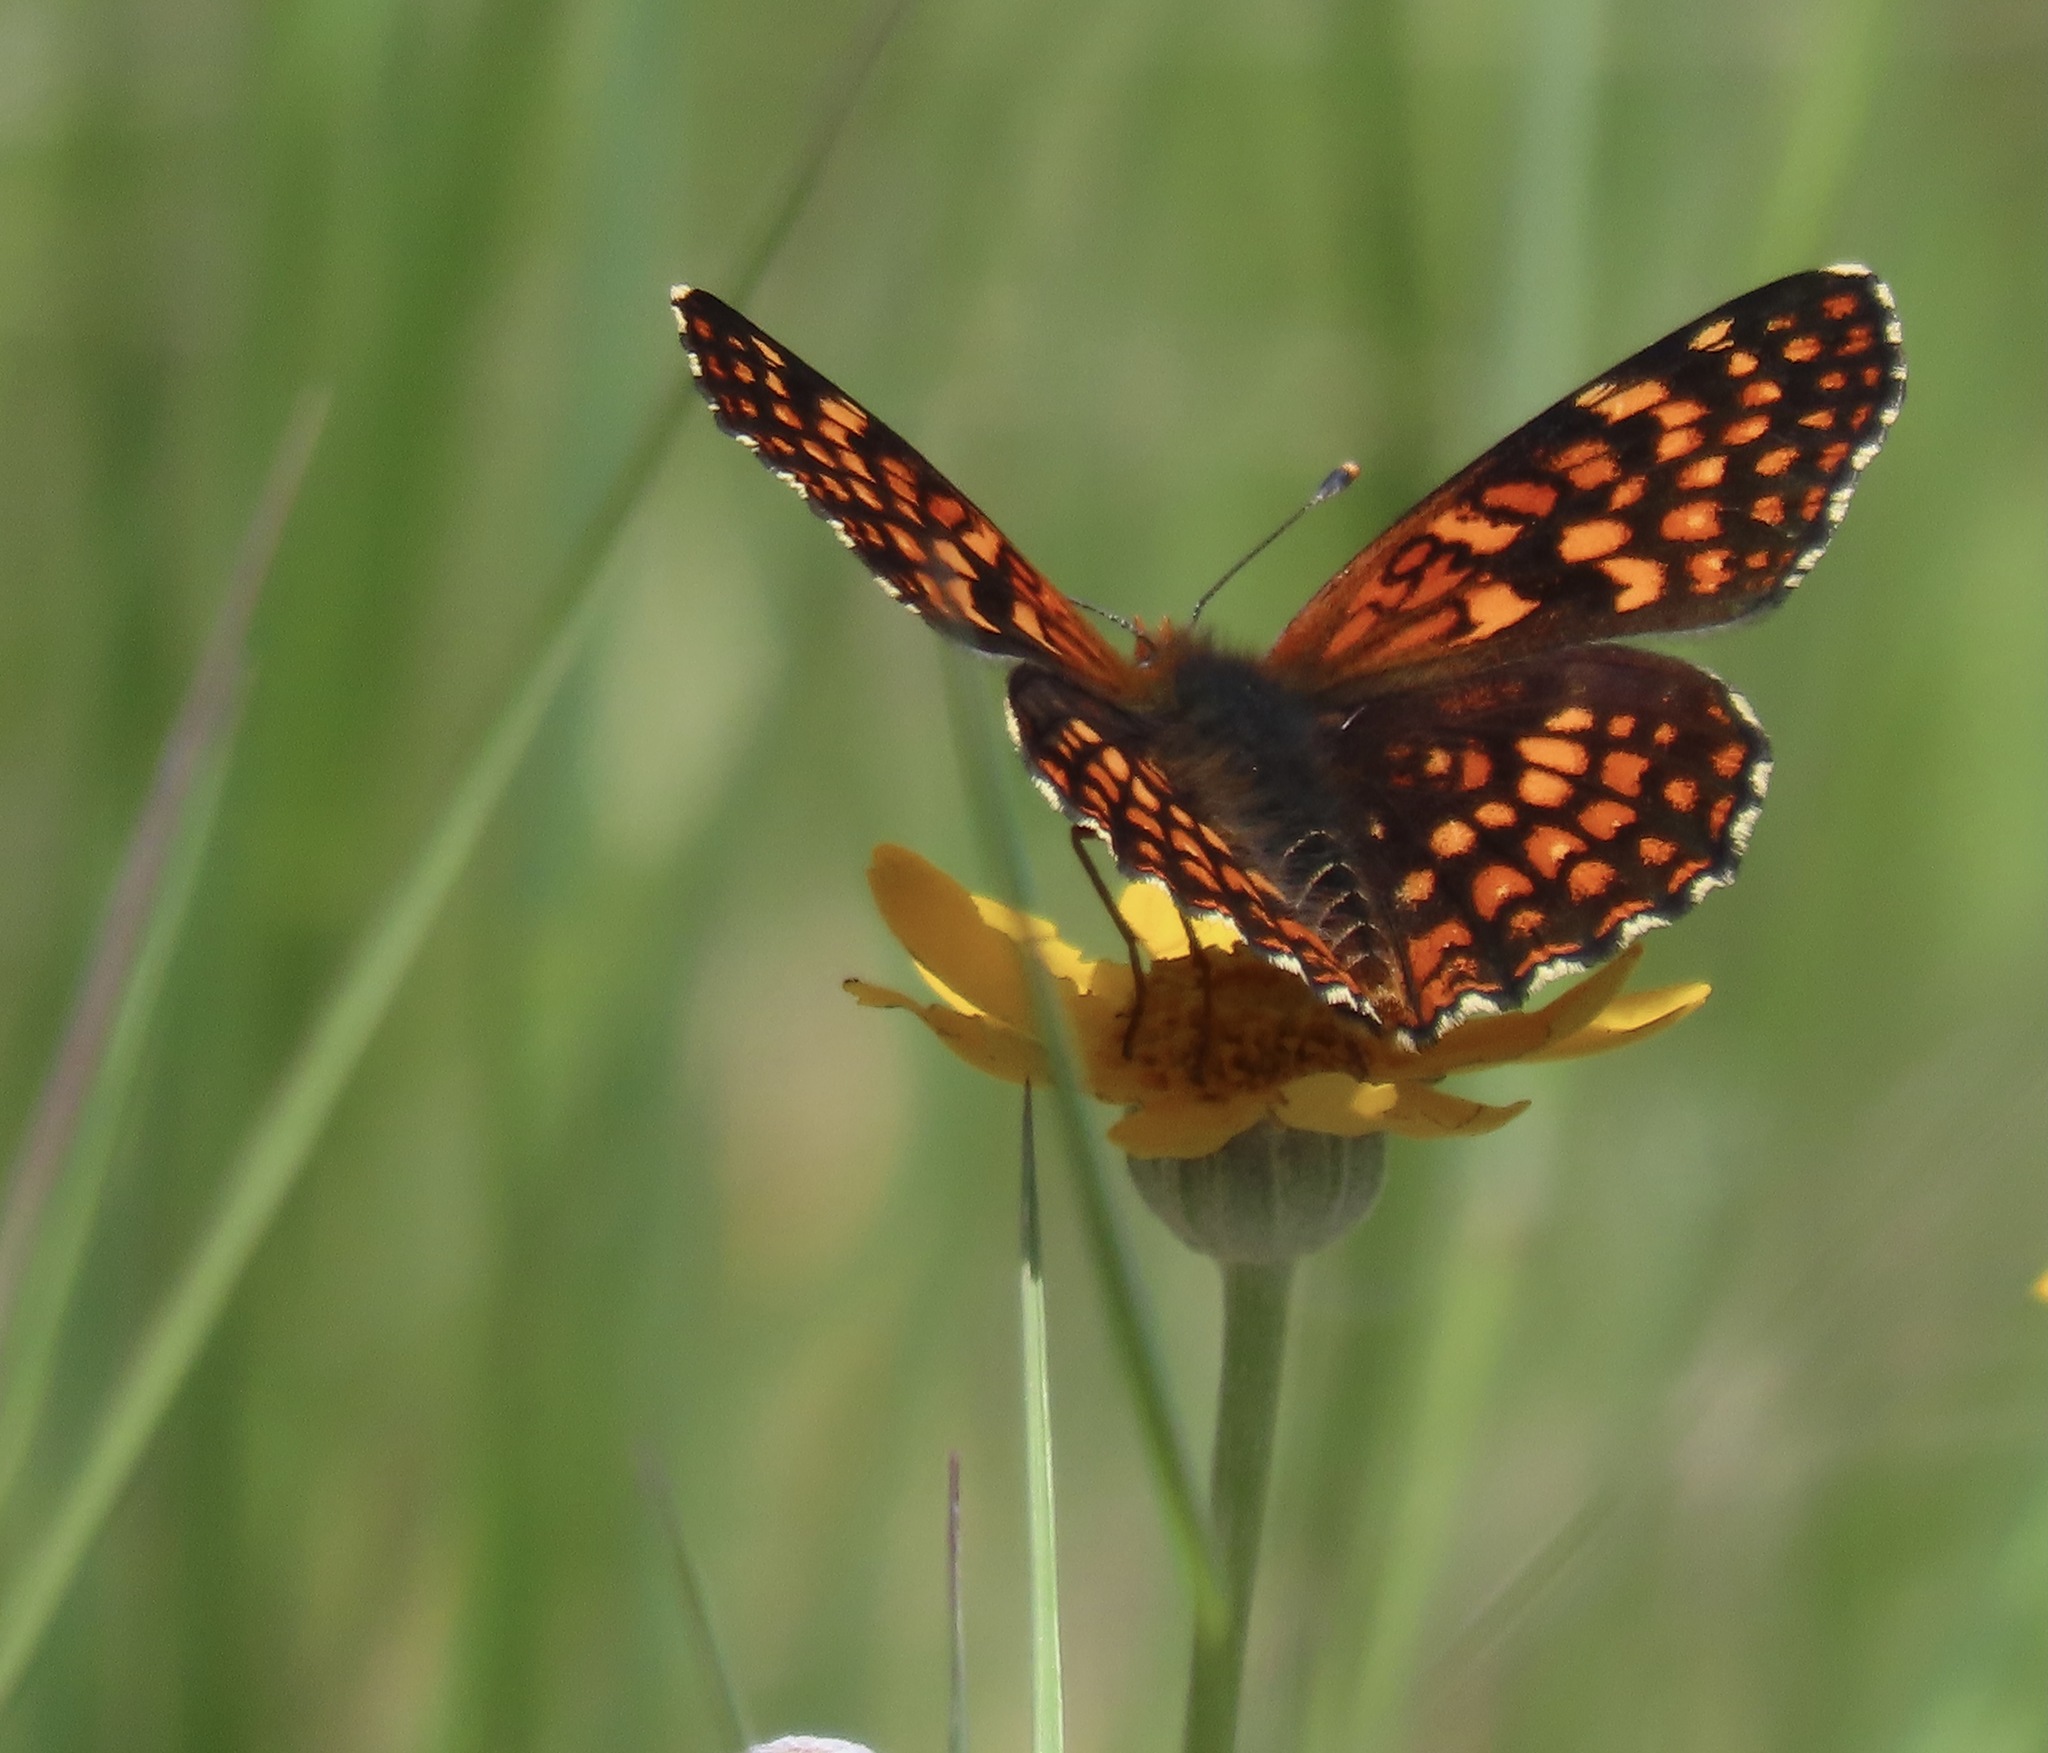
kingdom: Animalia
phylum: Arthropoda
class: Insecta
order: Lepidoptera
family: Nymphalidae
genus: Chlosyne
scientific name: Chlosyne palla
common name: Northern checkerspot
